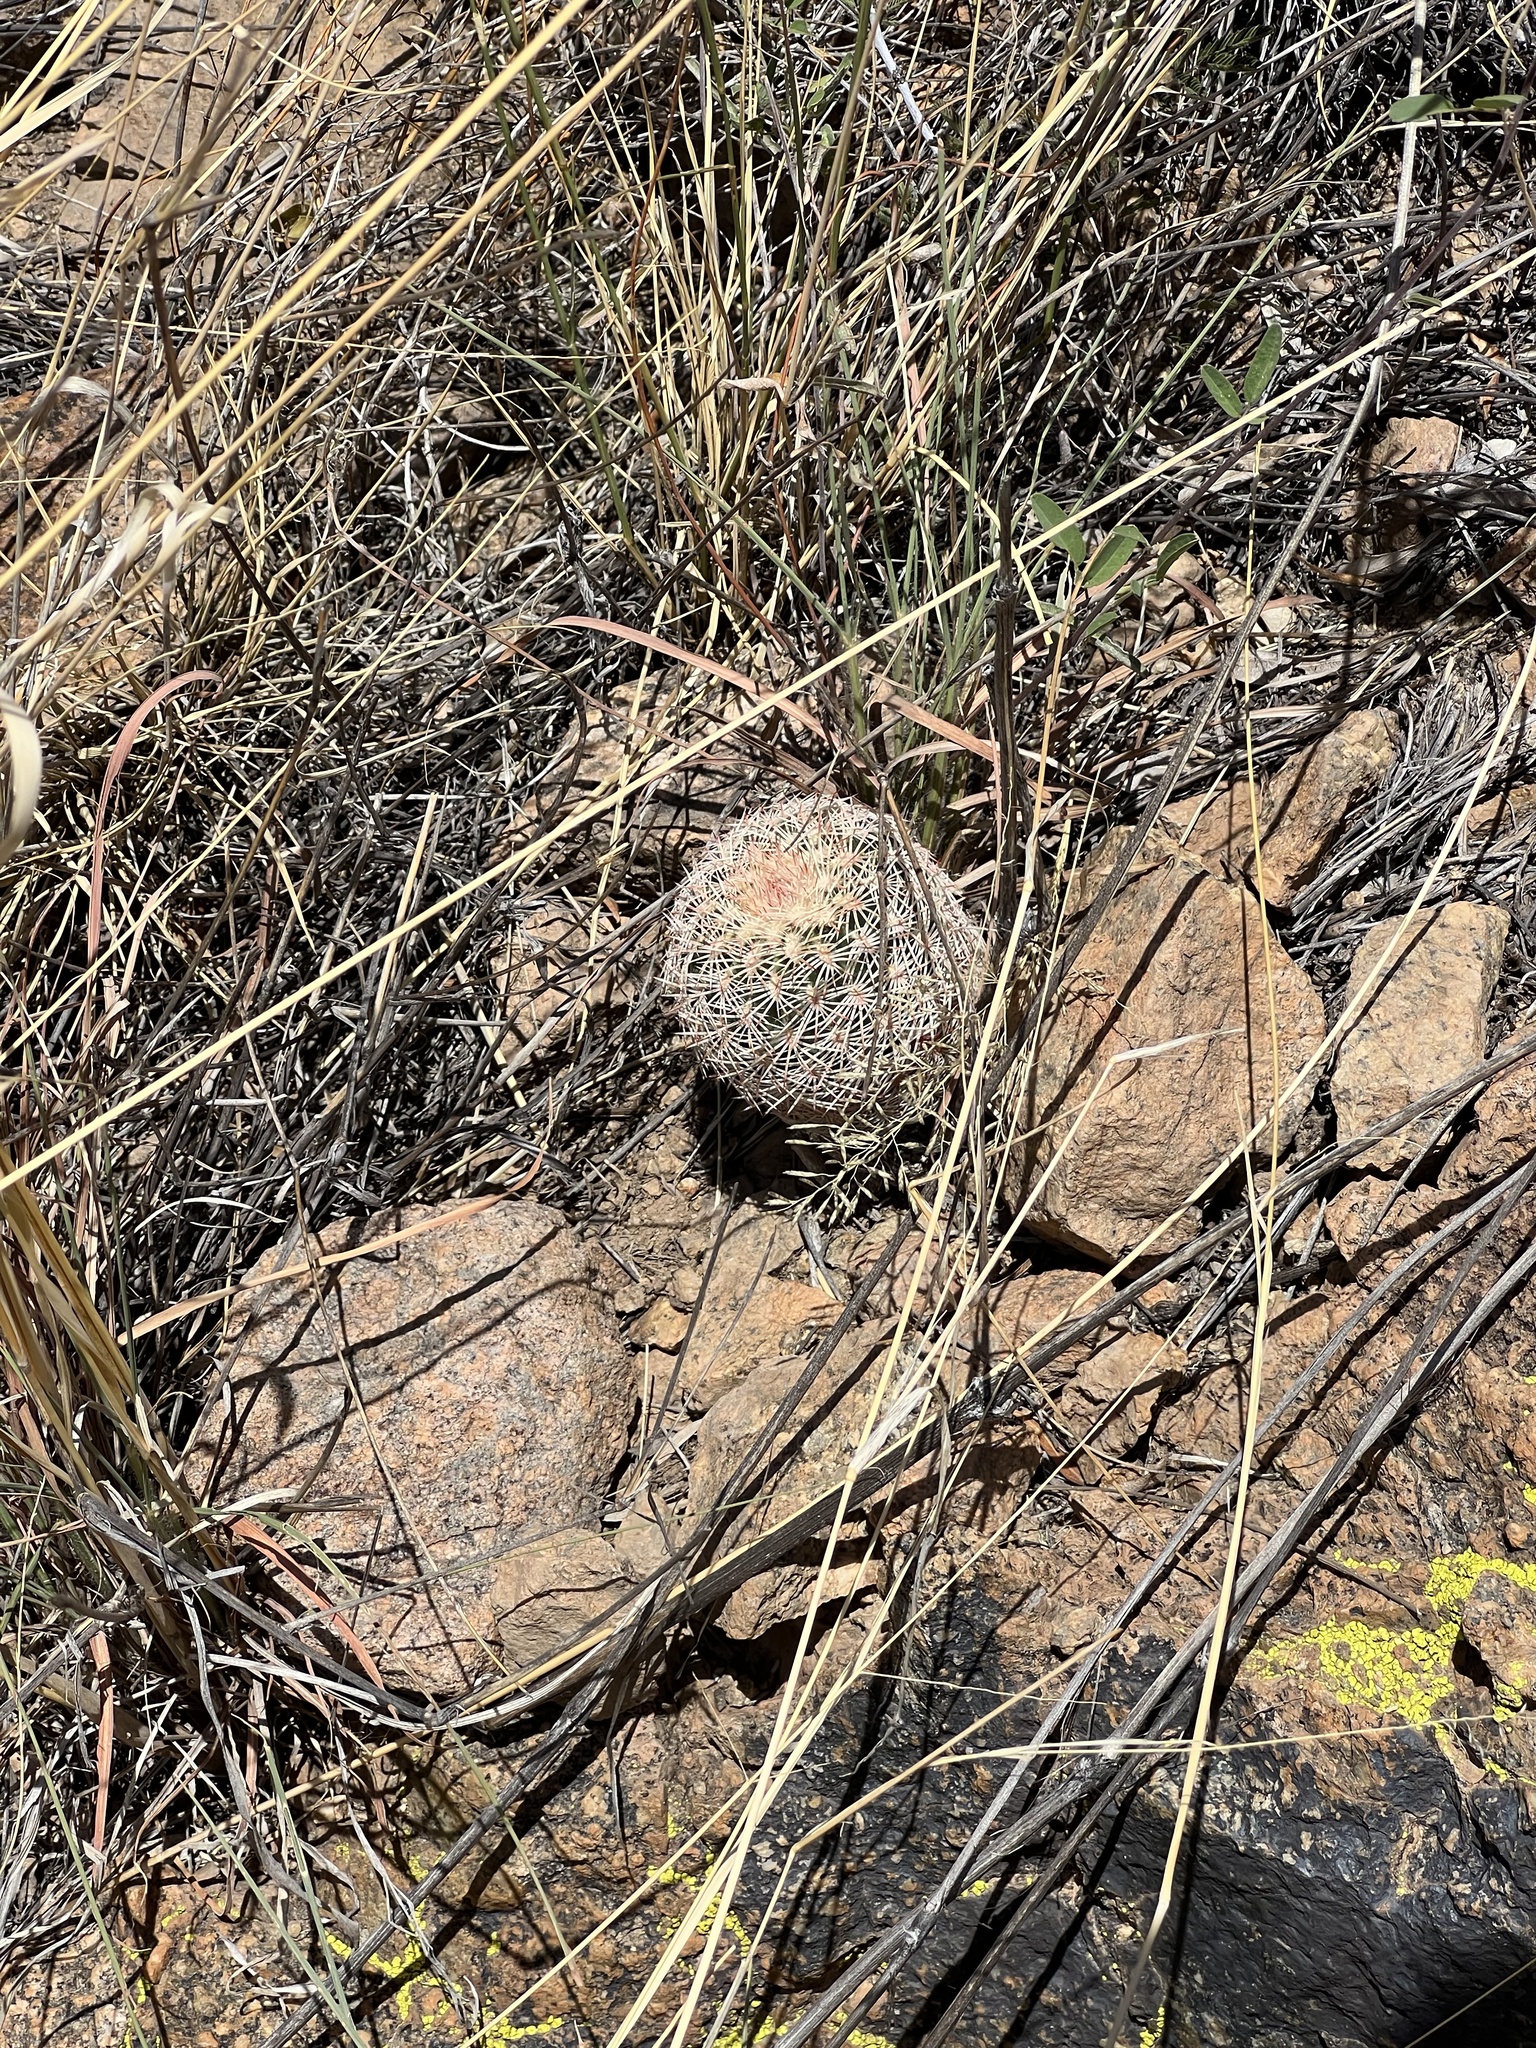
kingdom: Plantae
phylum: Tracheophyta
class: Magnoliopsida
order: Caryophyllales
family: Cactaceae
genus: Echinocereus
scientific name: Echinocereus rigidissimus
